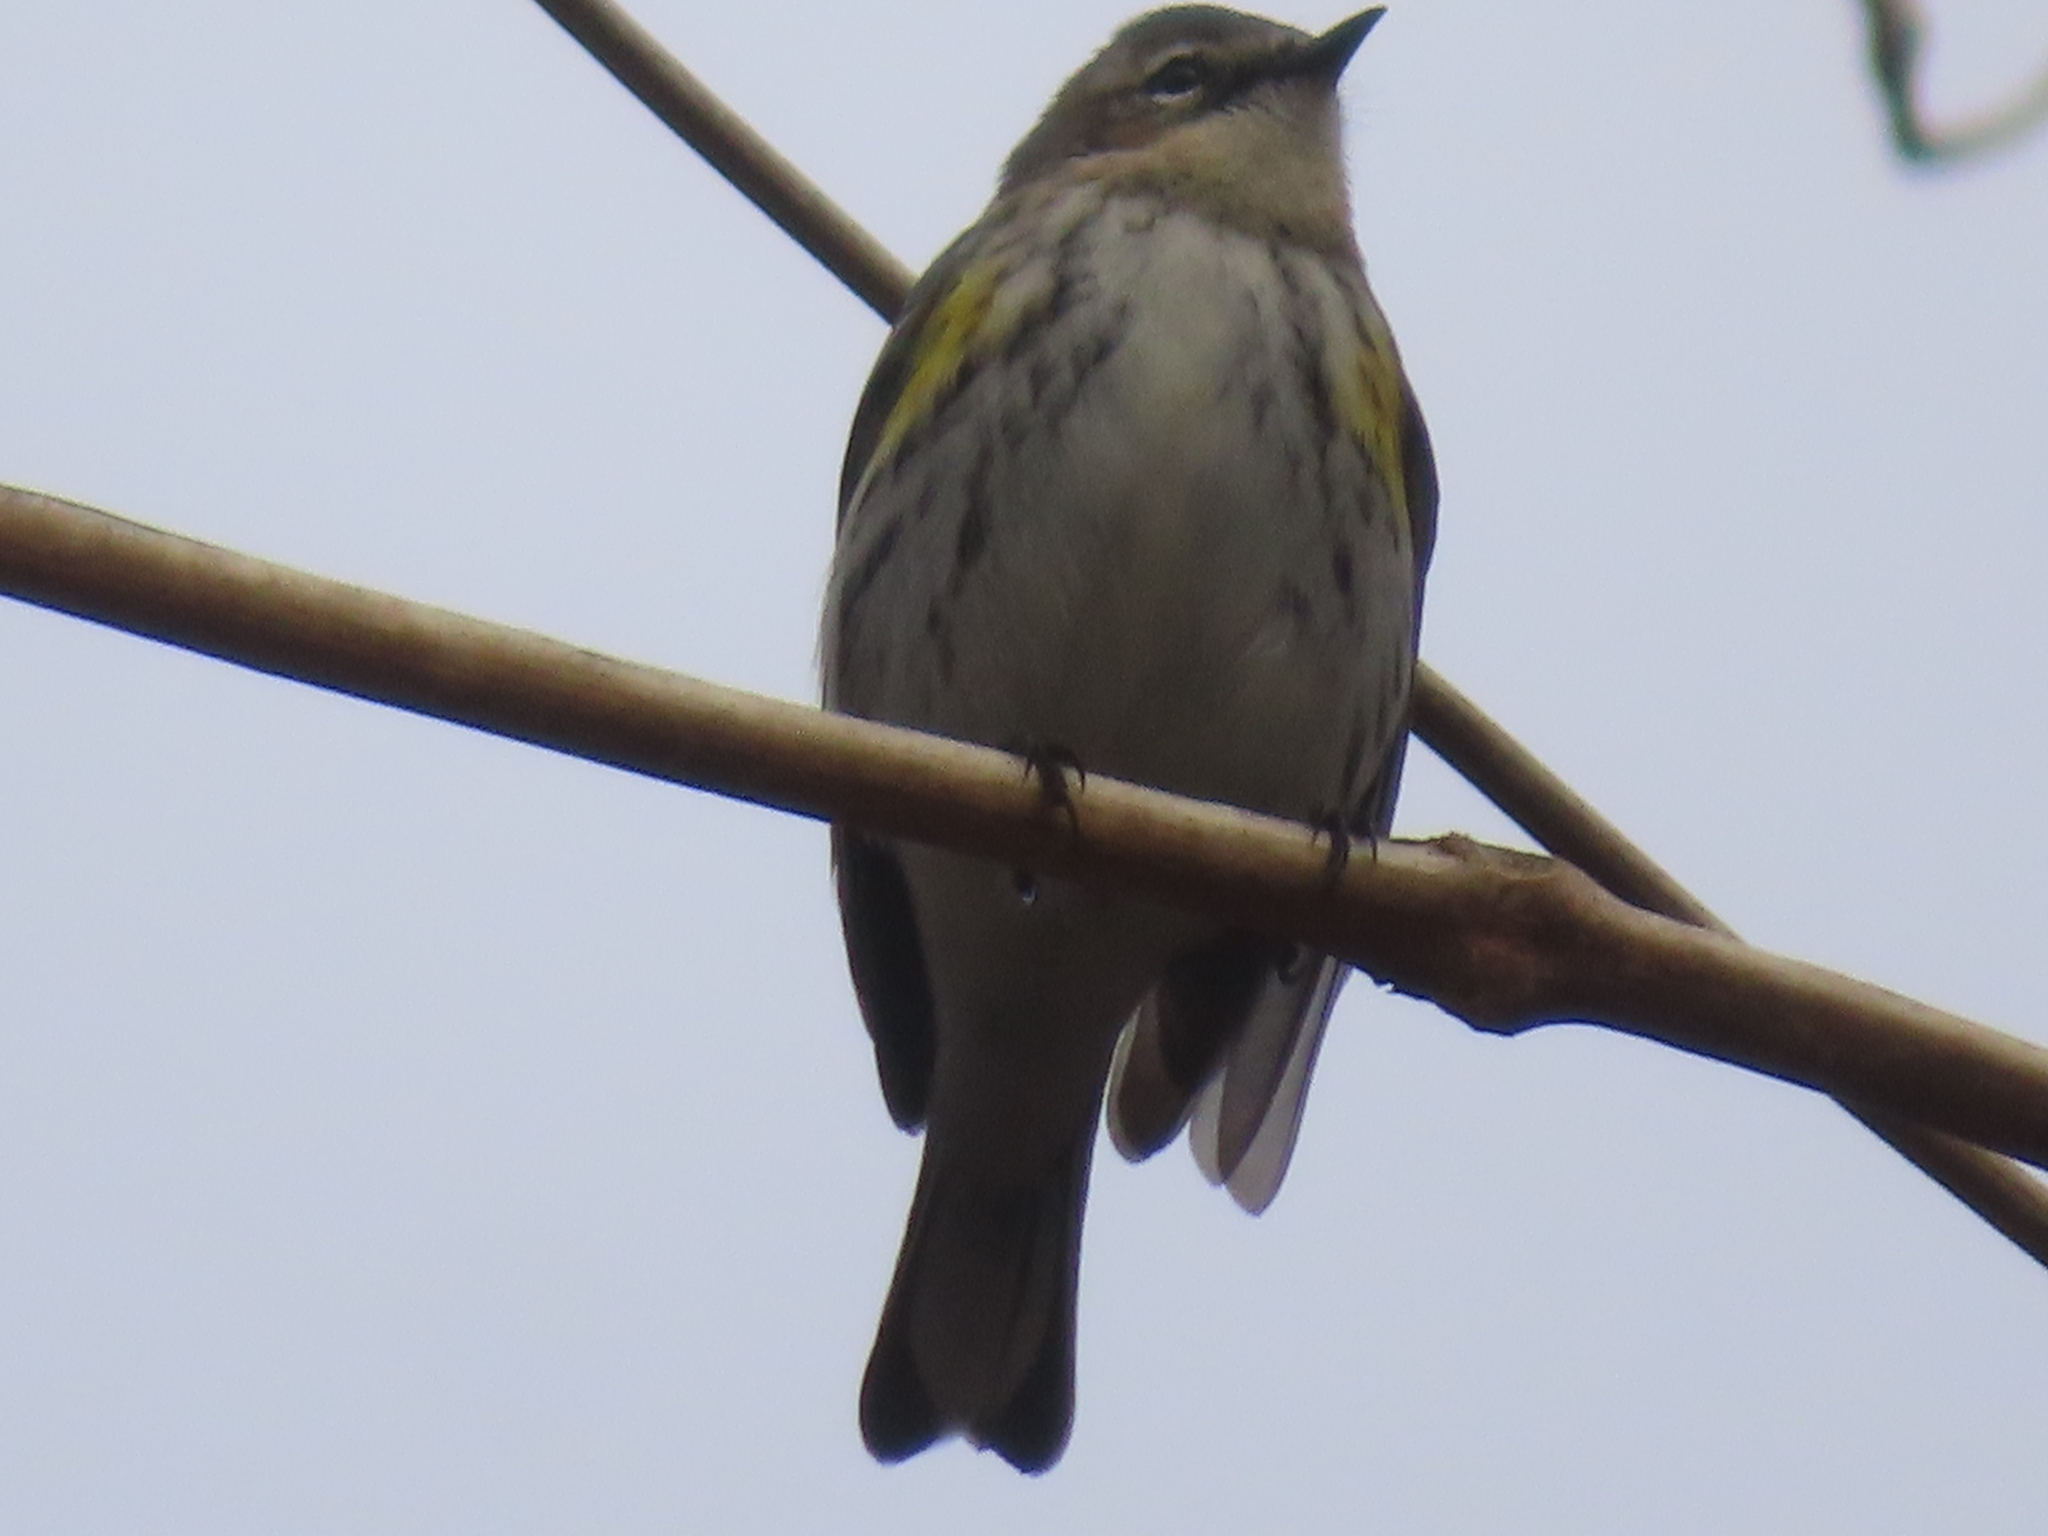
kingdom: Animalia
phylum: Chordata
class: Aves
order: Passeriformes
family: Parulidae
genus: Setophaga
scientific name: Setophaga coronata
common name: Myrtle warbler
